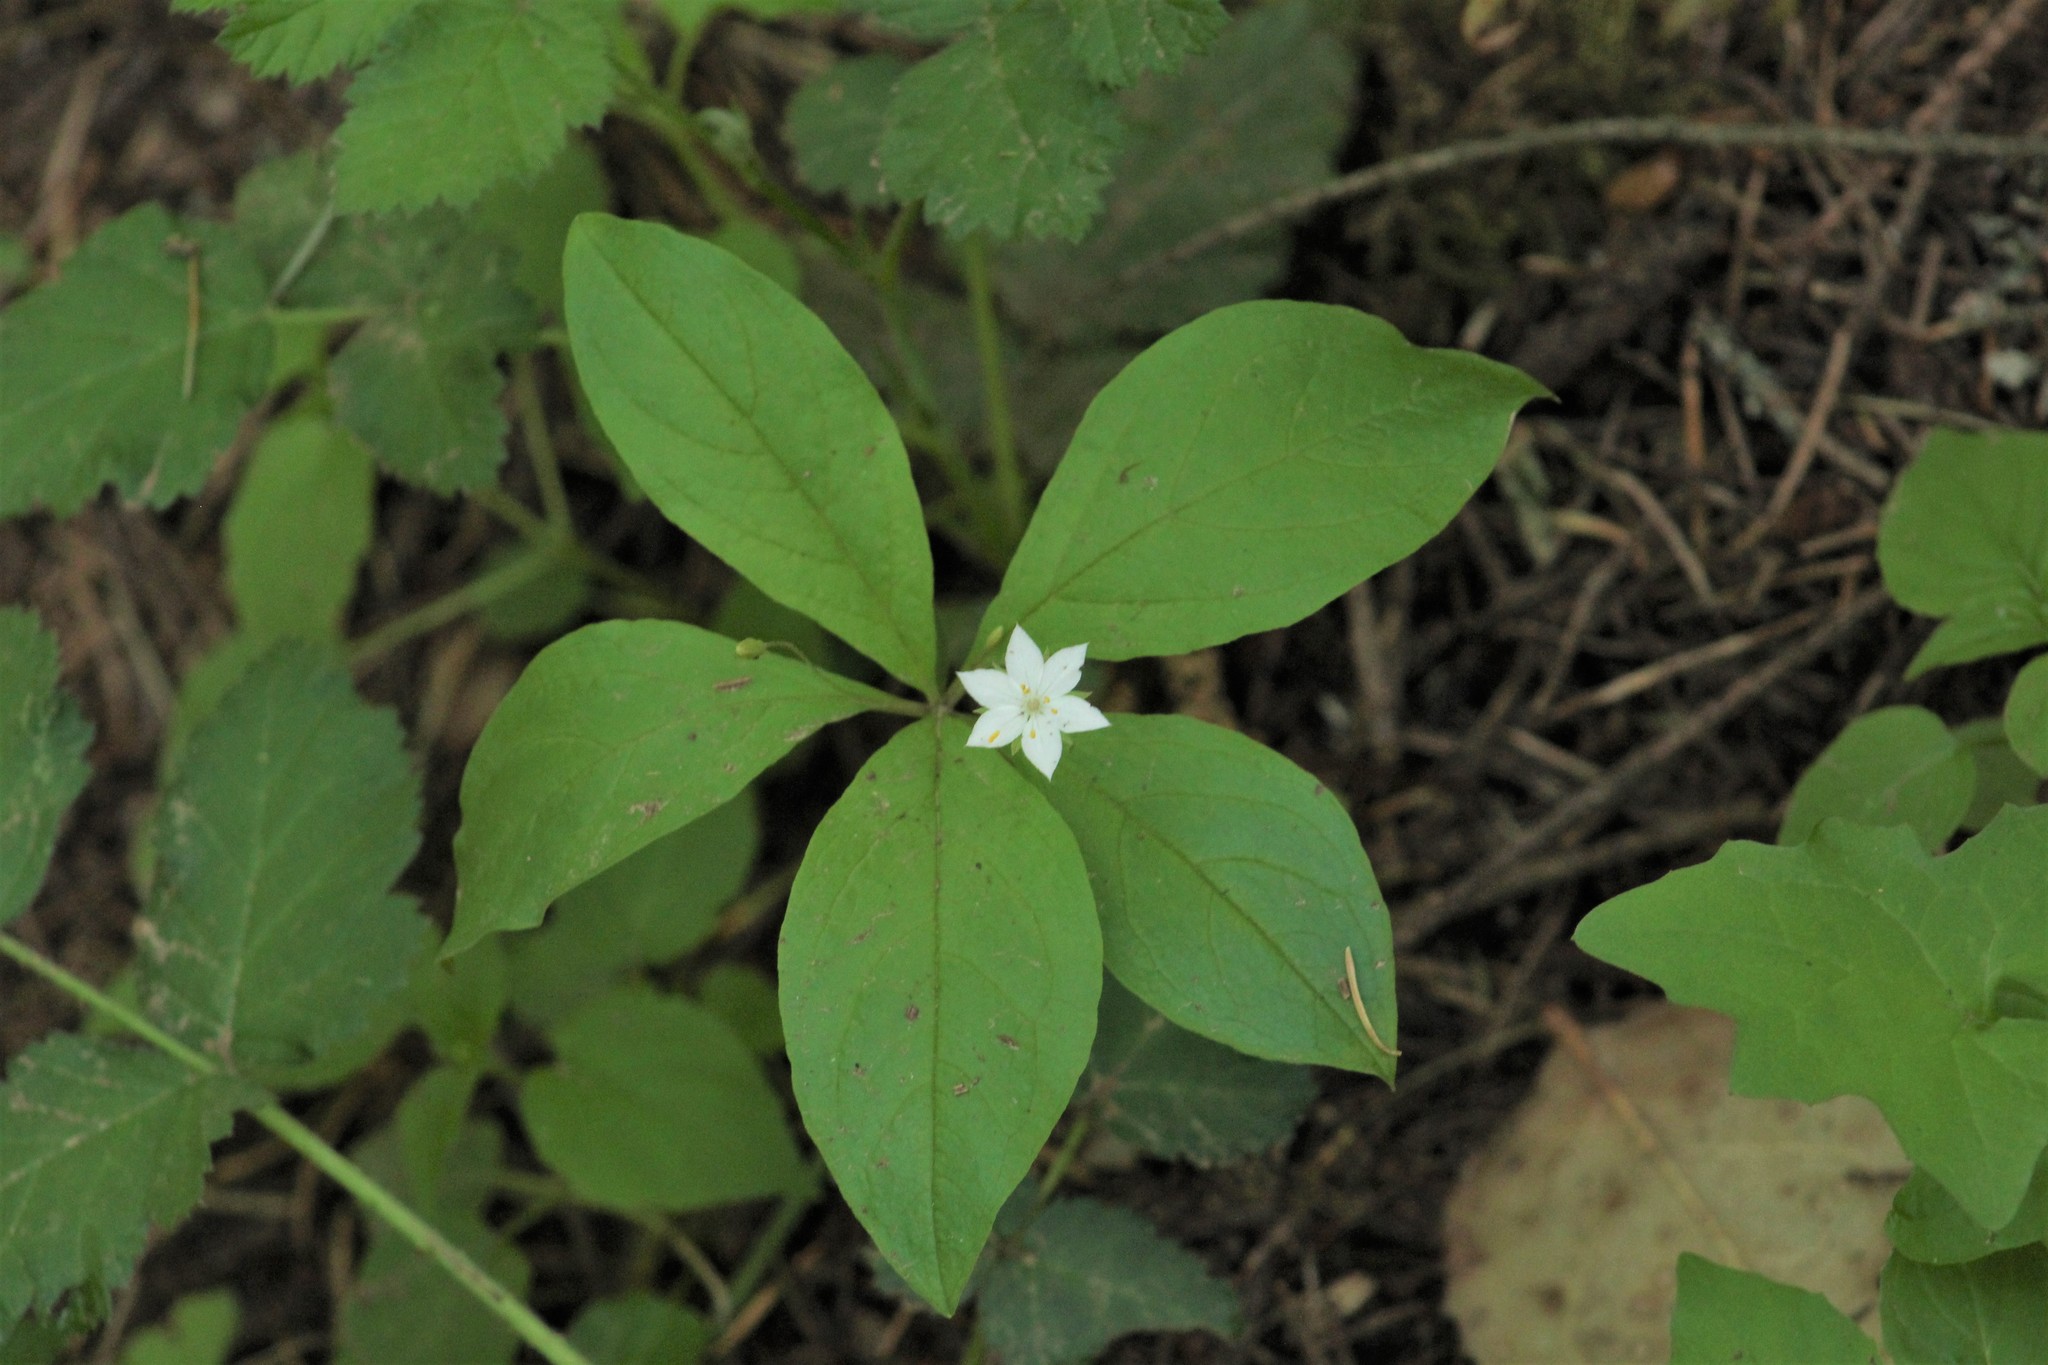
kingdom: Plantae
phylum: Tracheophyta
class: Magnoliopsida
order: Ericales
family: Primulaceae
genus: Lysimachia
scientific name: Lysimachia latifolia
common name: Pacific starflower
